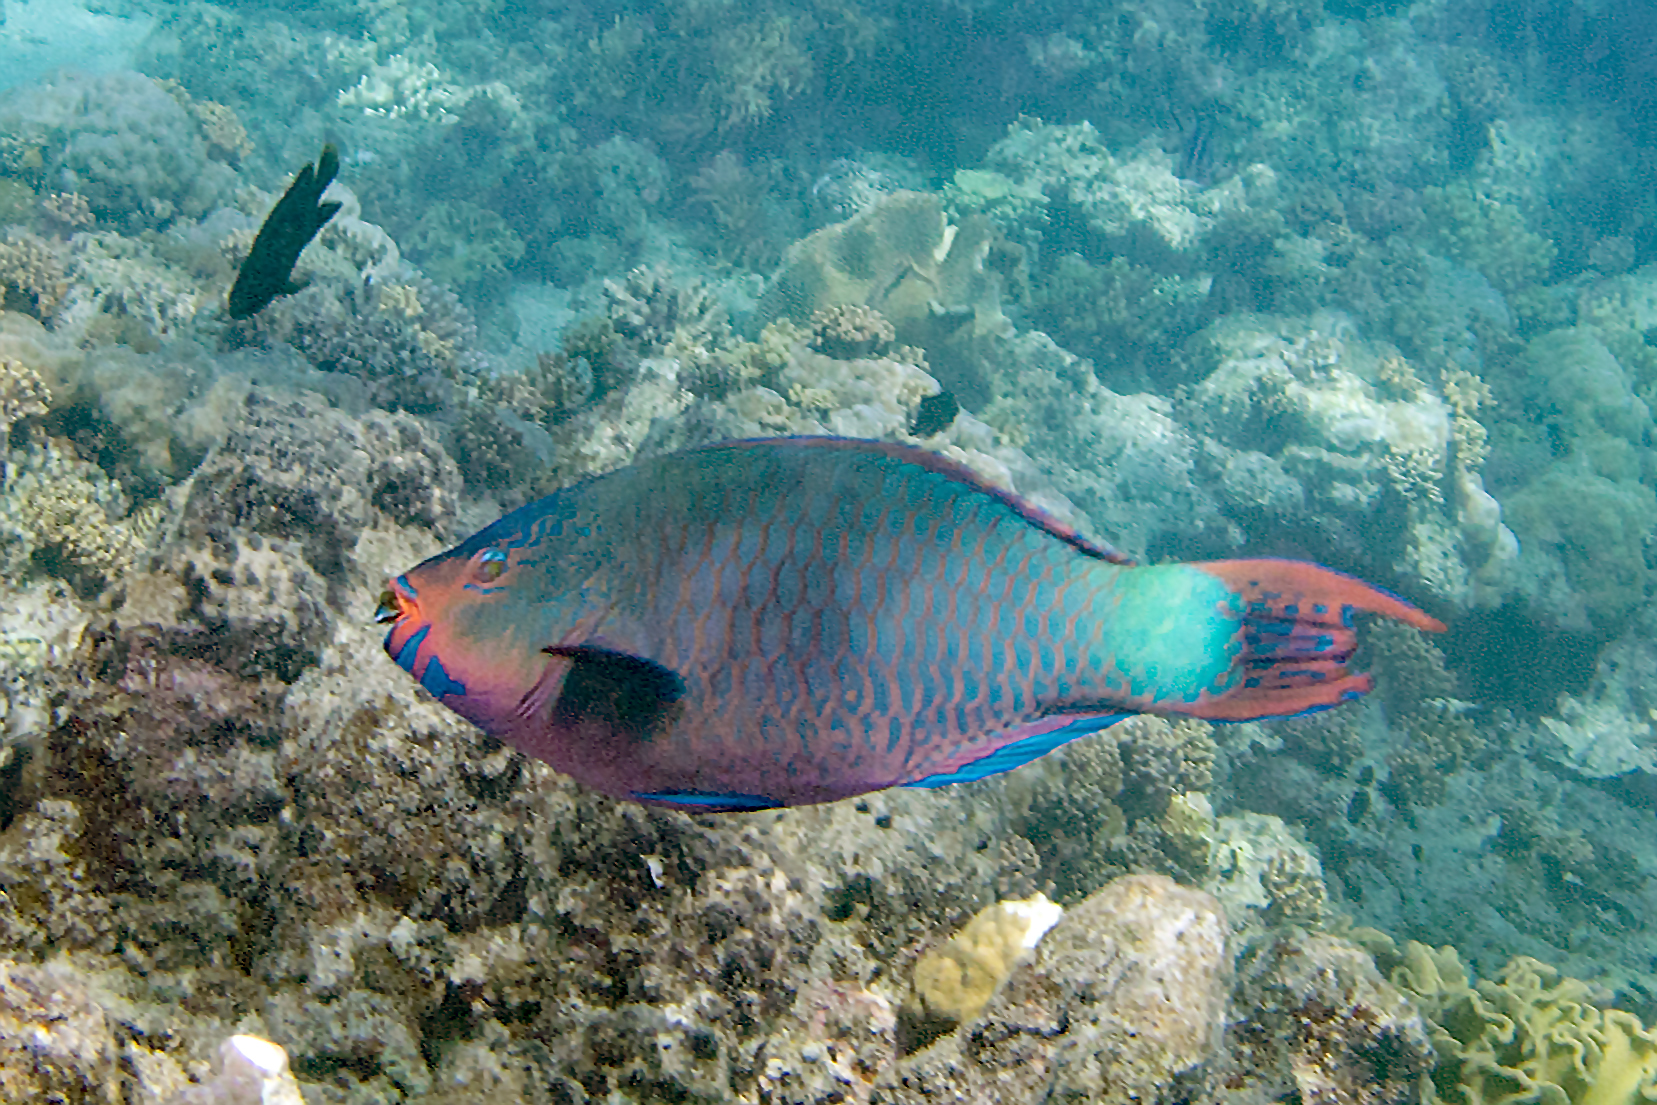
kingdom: Animalia
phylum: Chordata
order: Perciformes
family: Scaridae
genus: Scarus
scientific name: Scarus altipinnis
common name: Minifin parrotfish
